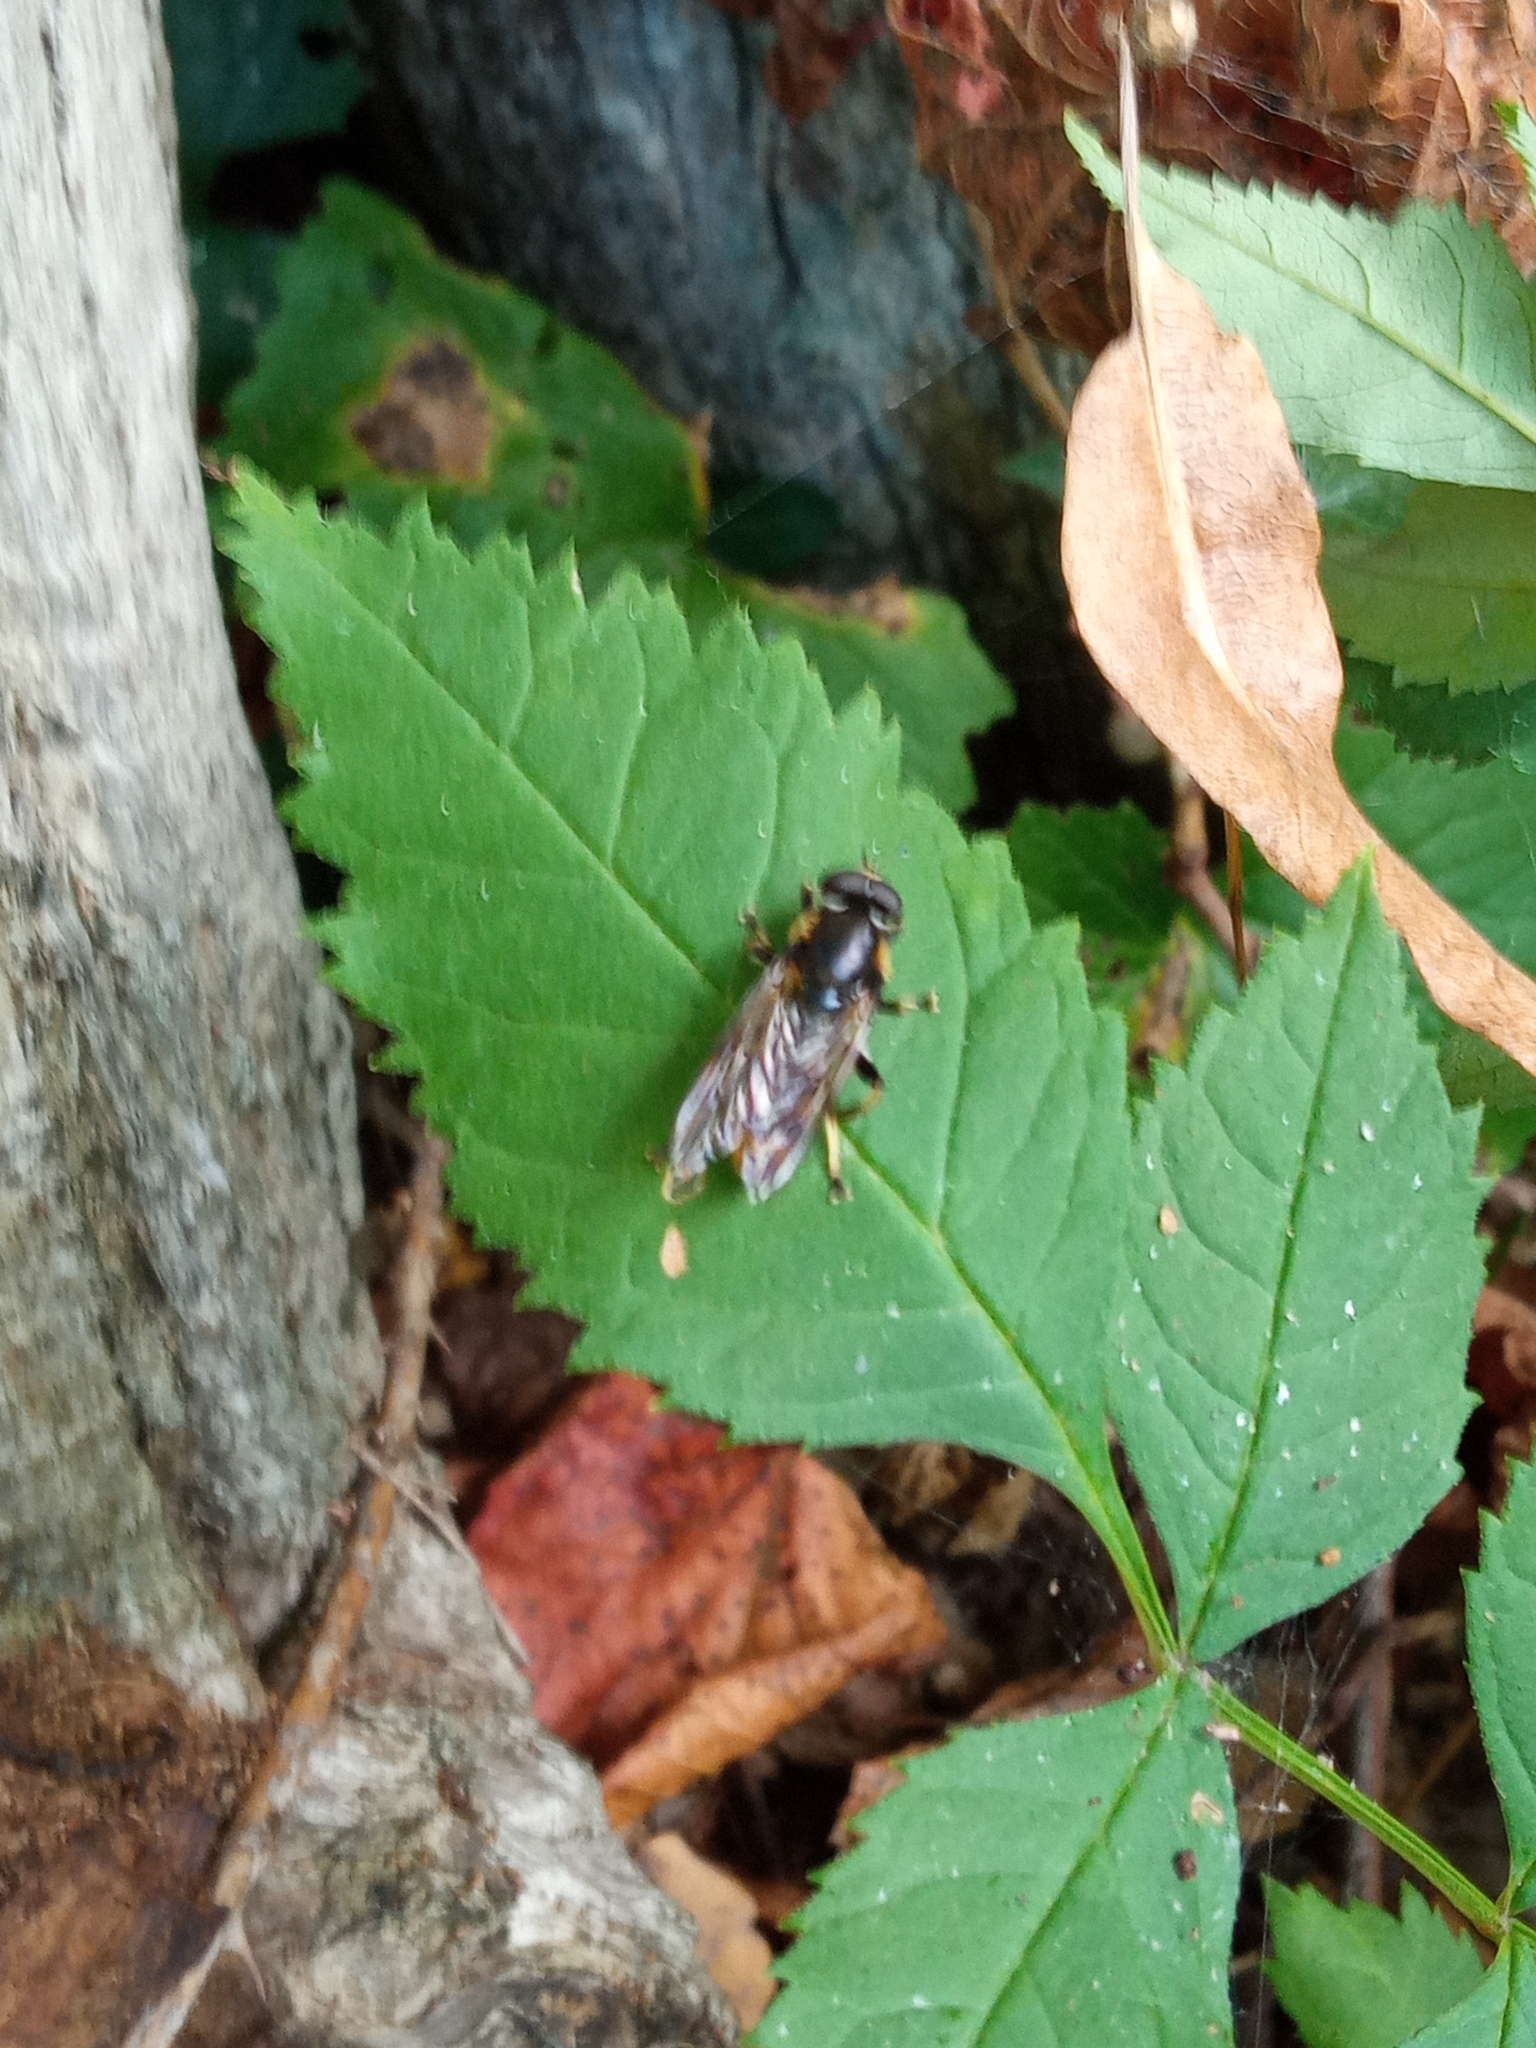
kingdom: Animalia
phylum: Arthropoda
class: Insecta
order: Diptera
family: Syrphidae
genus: Xylota
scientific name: Xylota sylvarum
